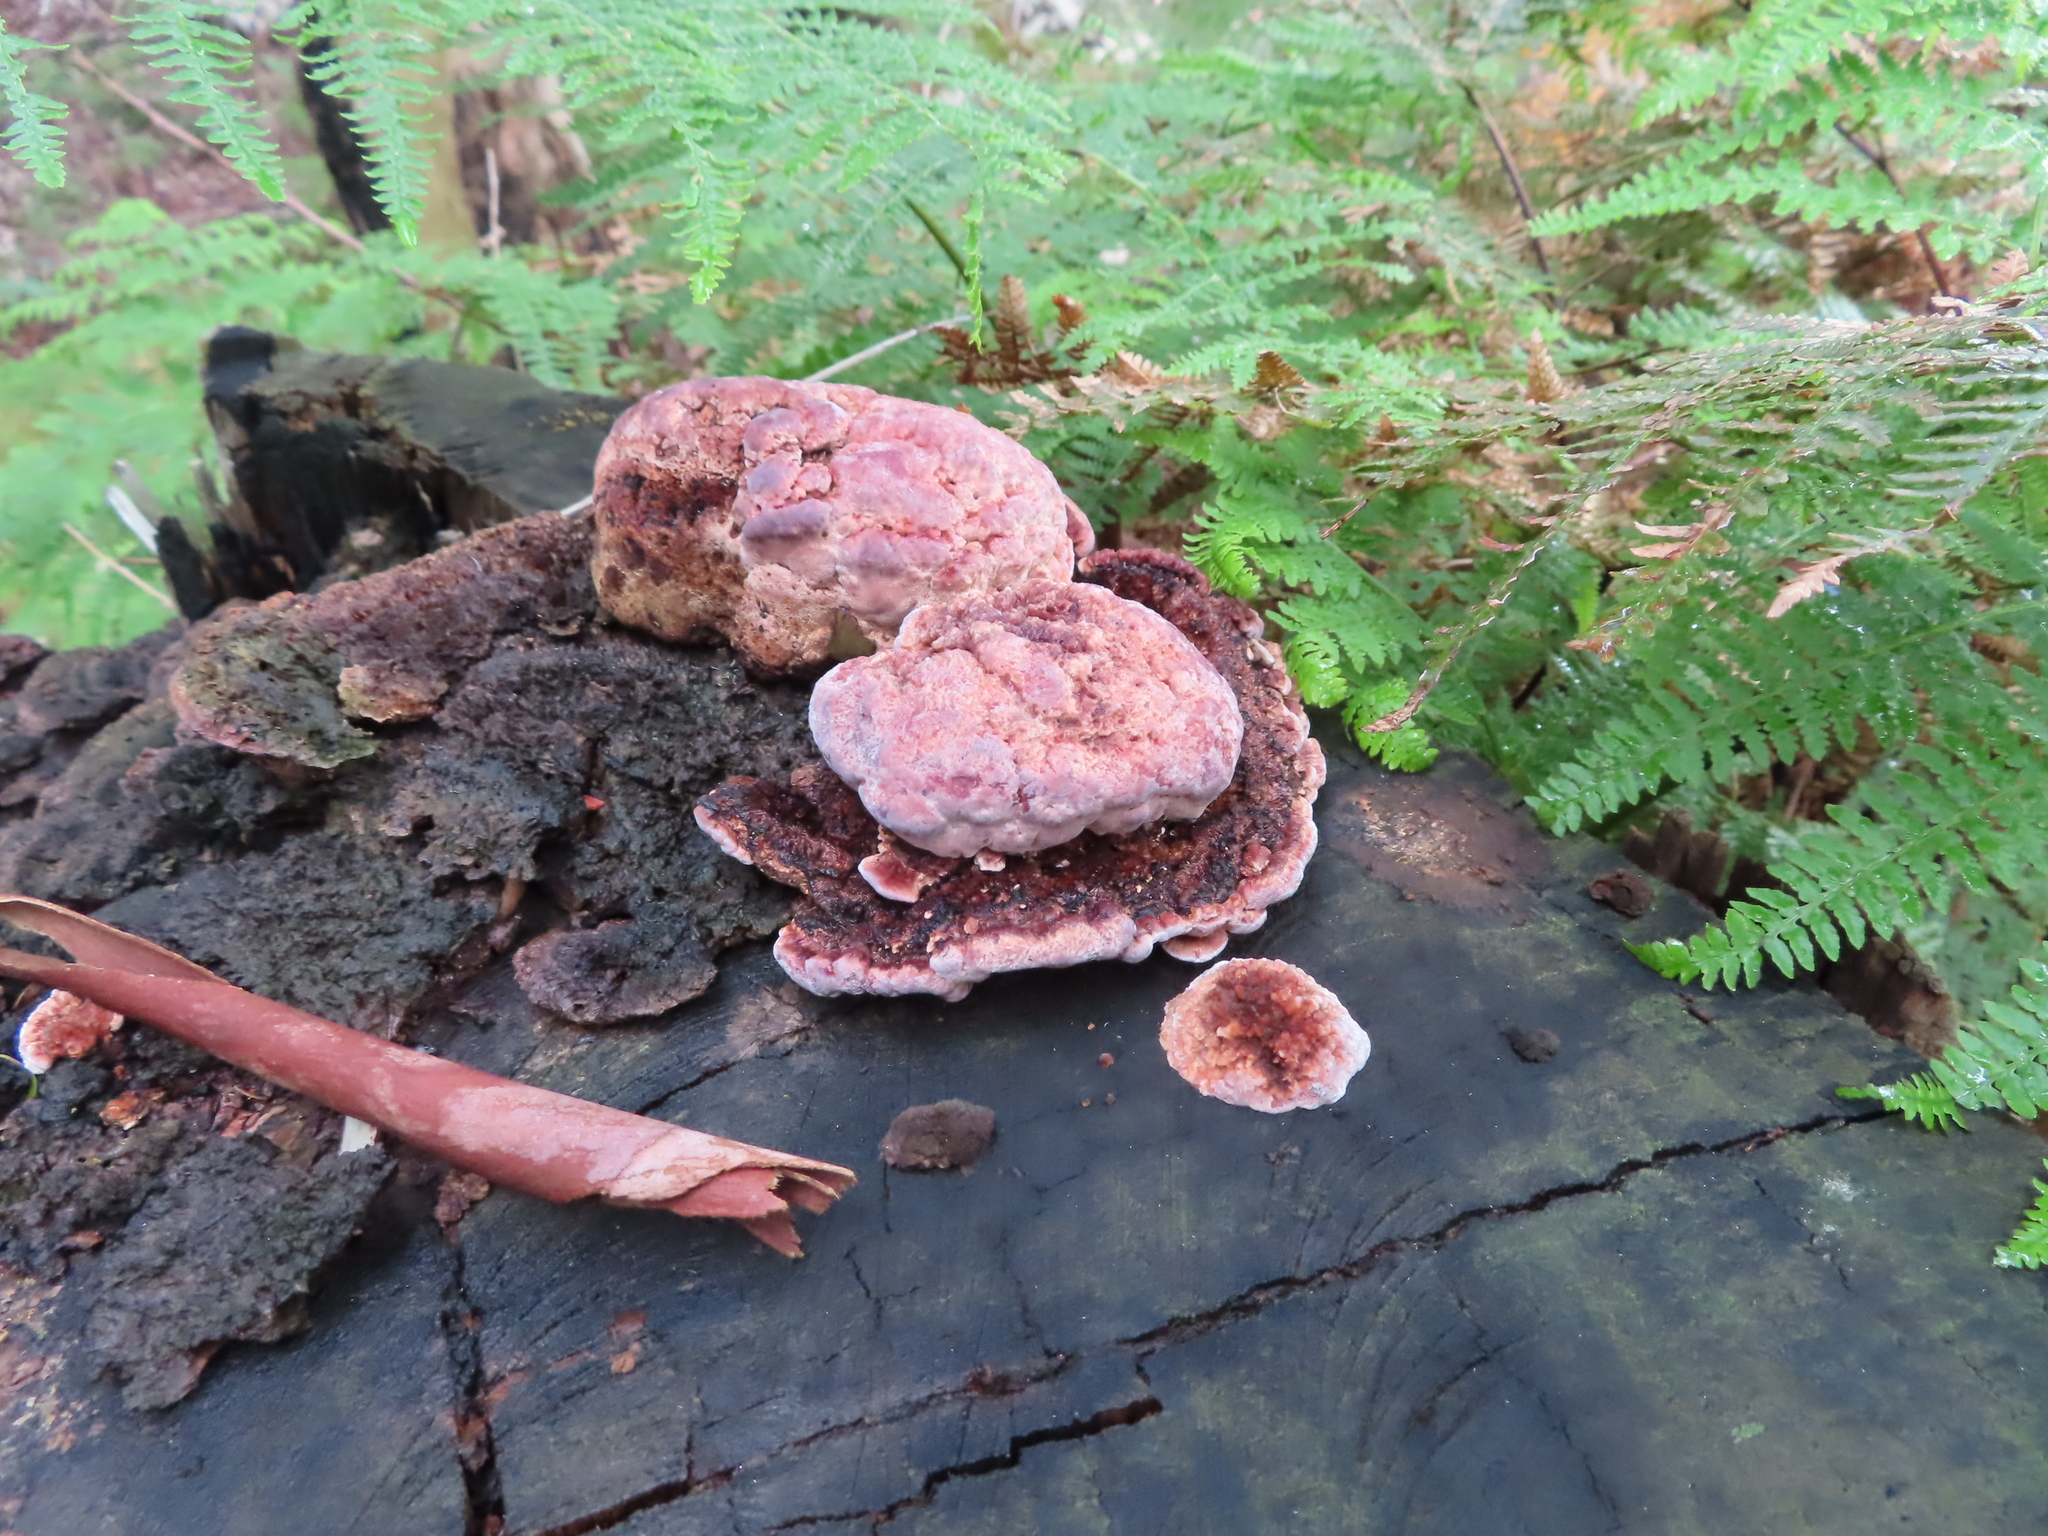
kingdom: Fungi
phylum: Basidiomycota
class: Agaricomycetes
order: Polyporales
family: Fomitopsidaceae
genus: Rhodofomitopsis
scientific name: Rhodofomitopsis lilacinogilva
